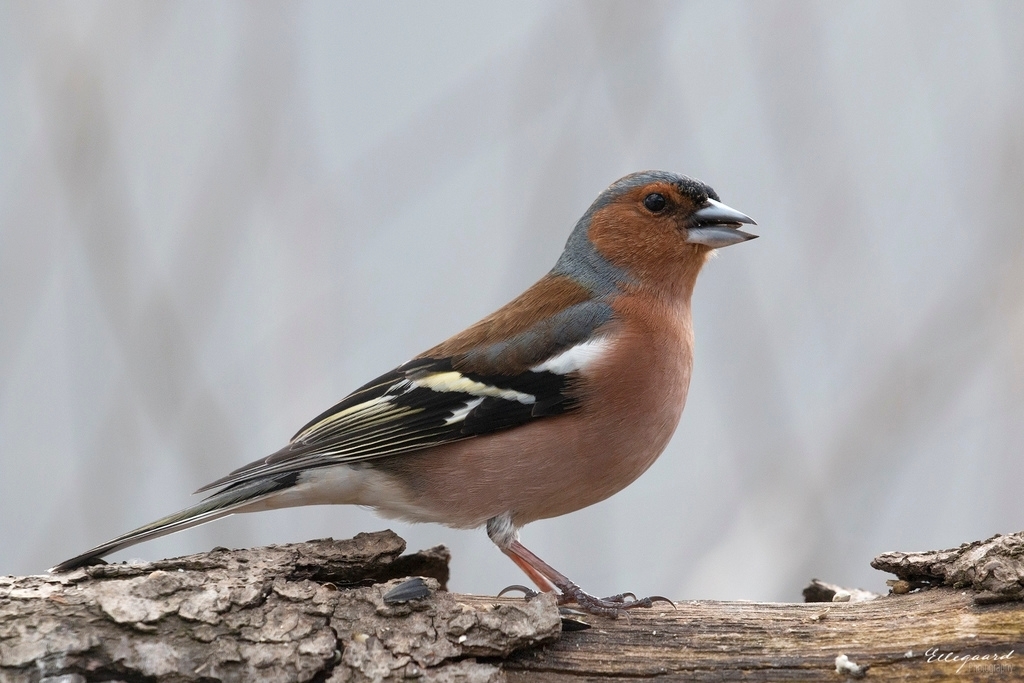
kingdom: Animalia
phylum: Chordata
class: Aves
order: Passeriformes
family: Fringillidae
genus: Fringilla
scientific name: Fringilla coelebs
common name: Common chaffinch
